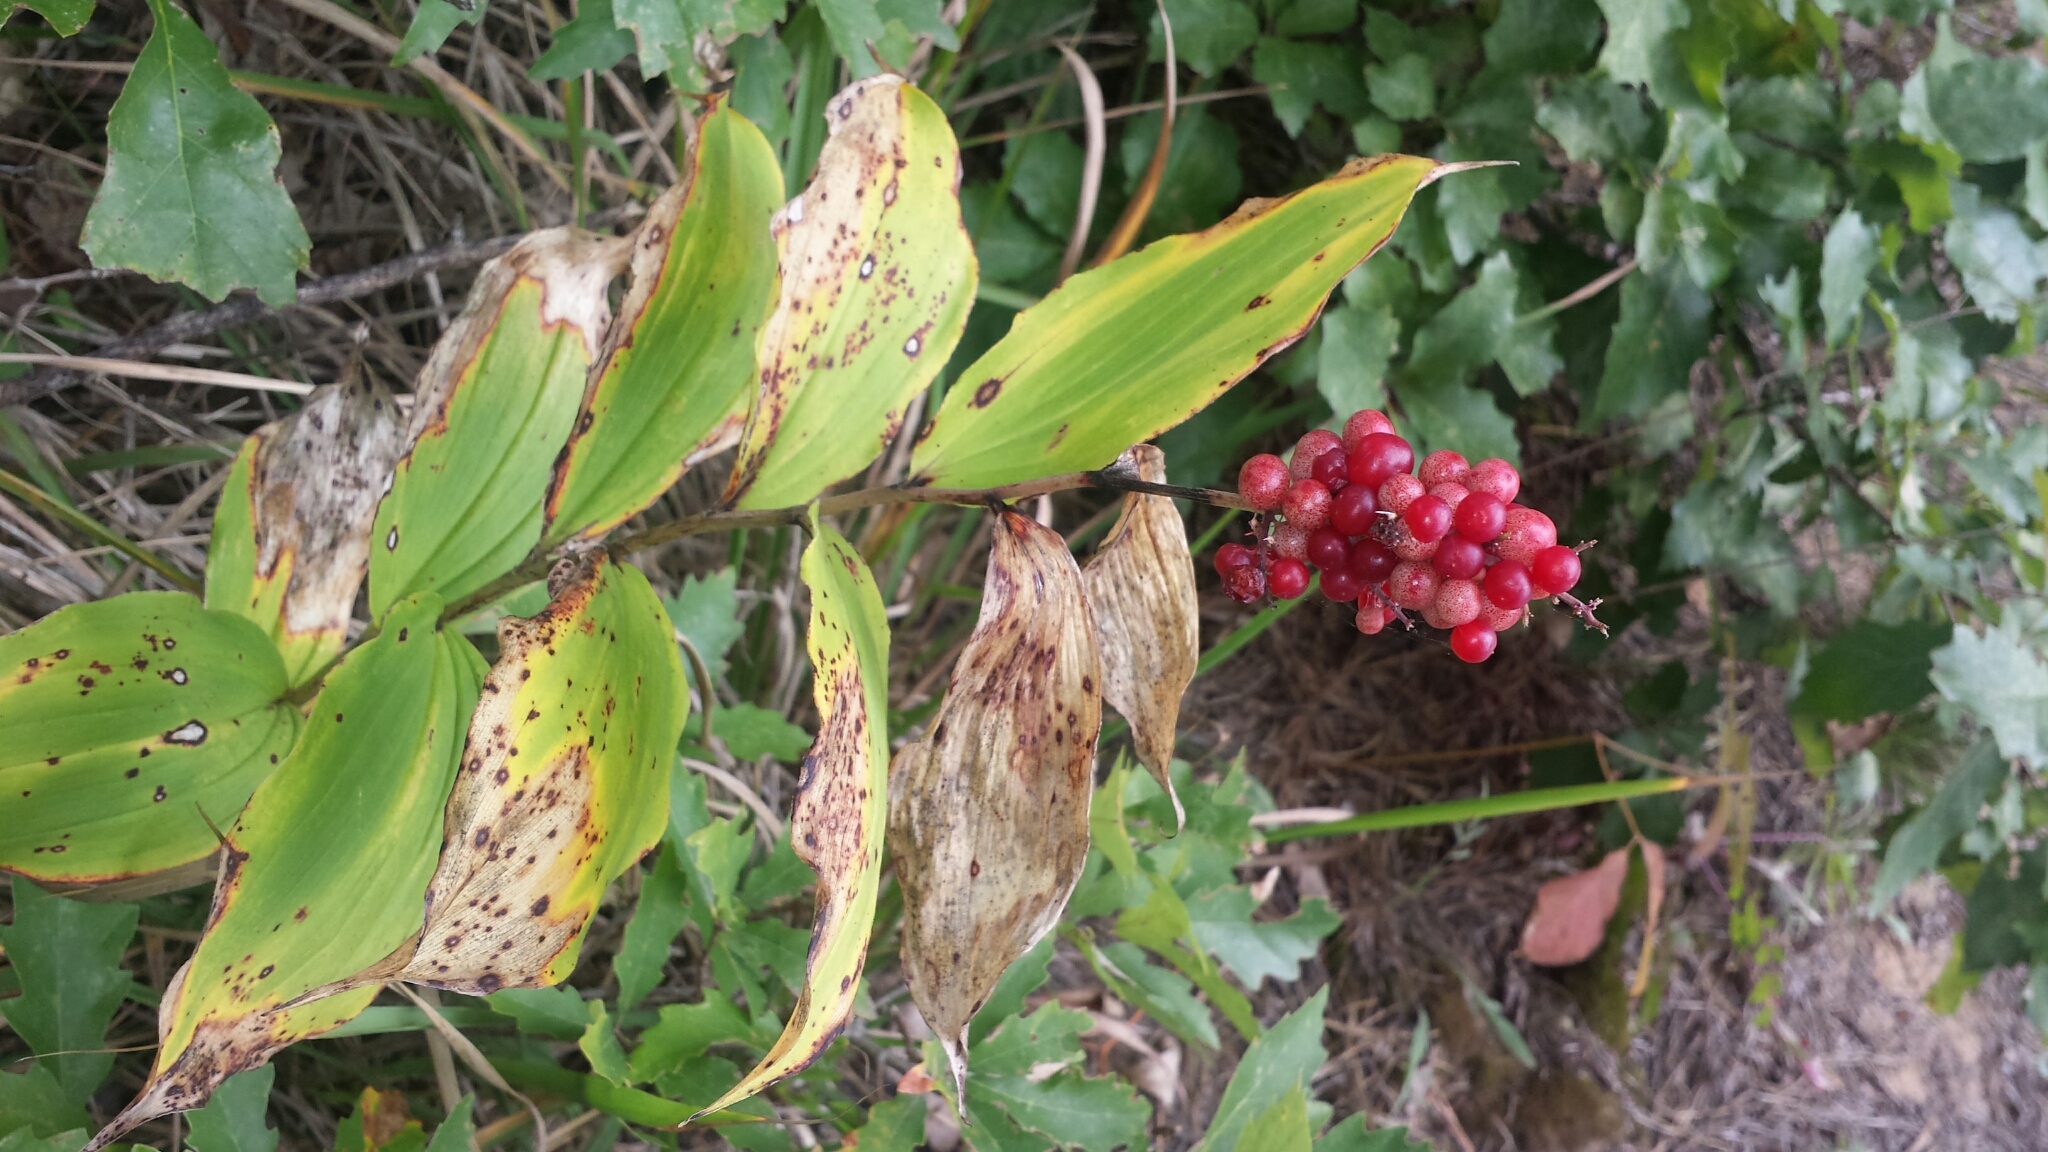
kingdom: Plantae
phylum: Tracheophyta
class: Liliopsida
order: Asparagales
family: Asparagaceae
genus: Maianthemum
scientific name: Maianthemum racemosum
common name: False spikenard
